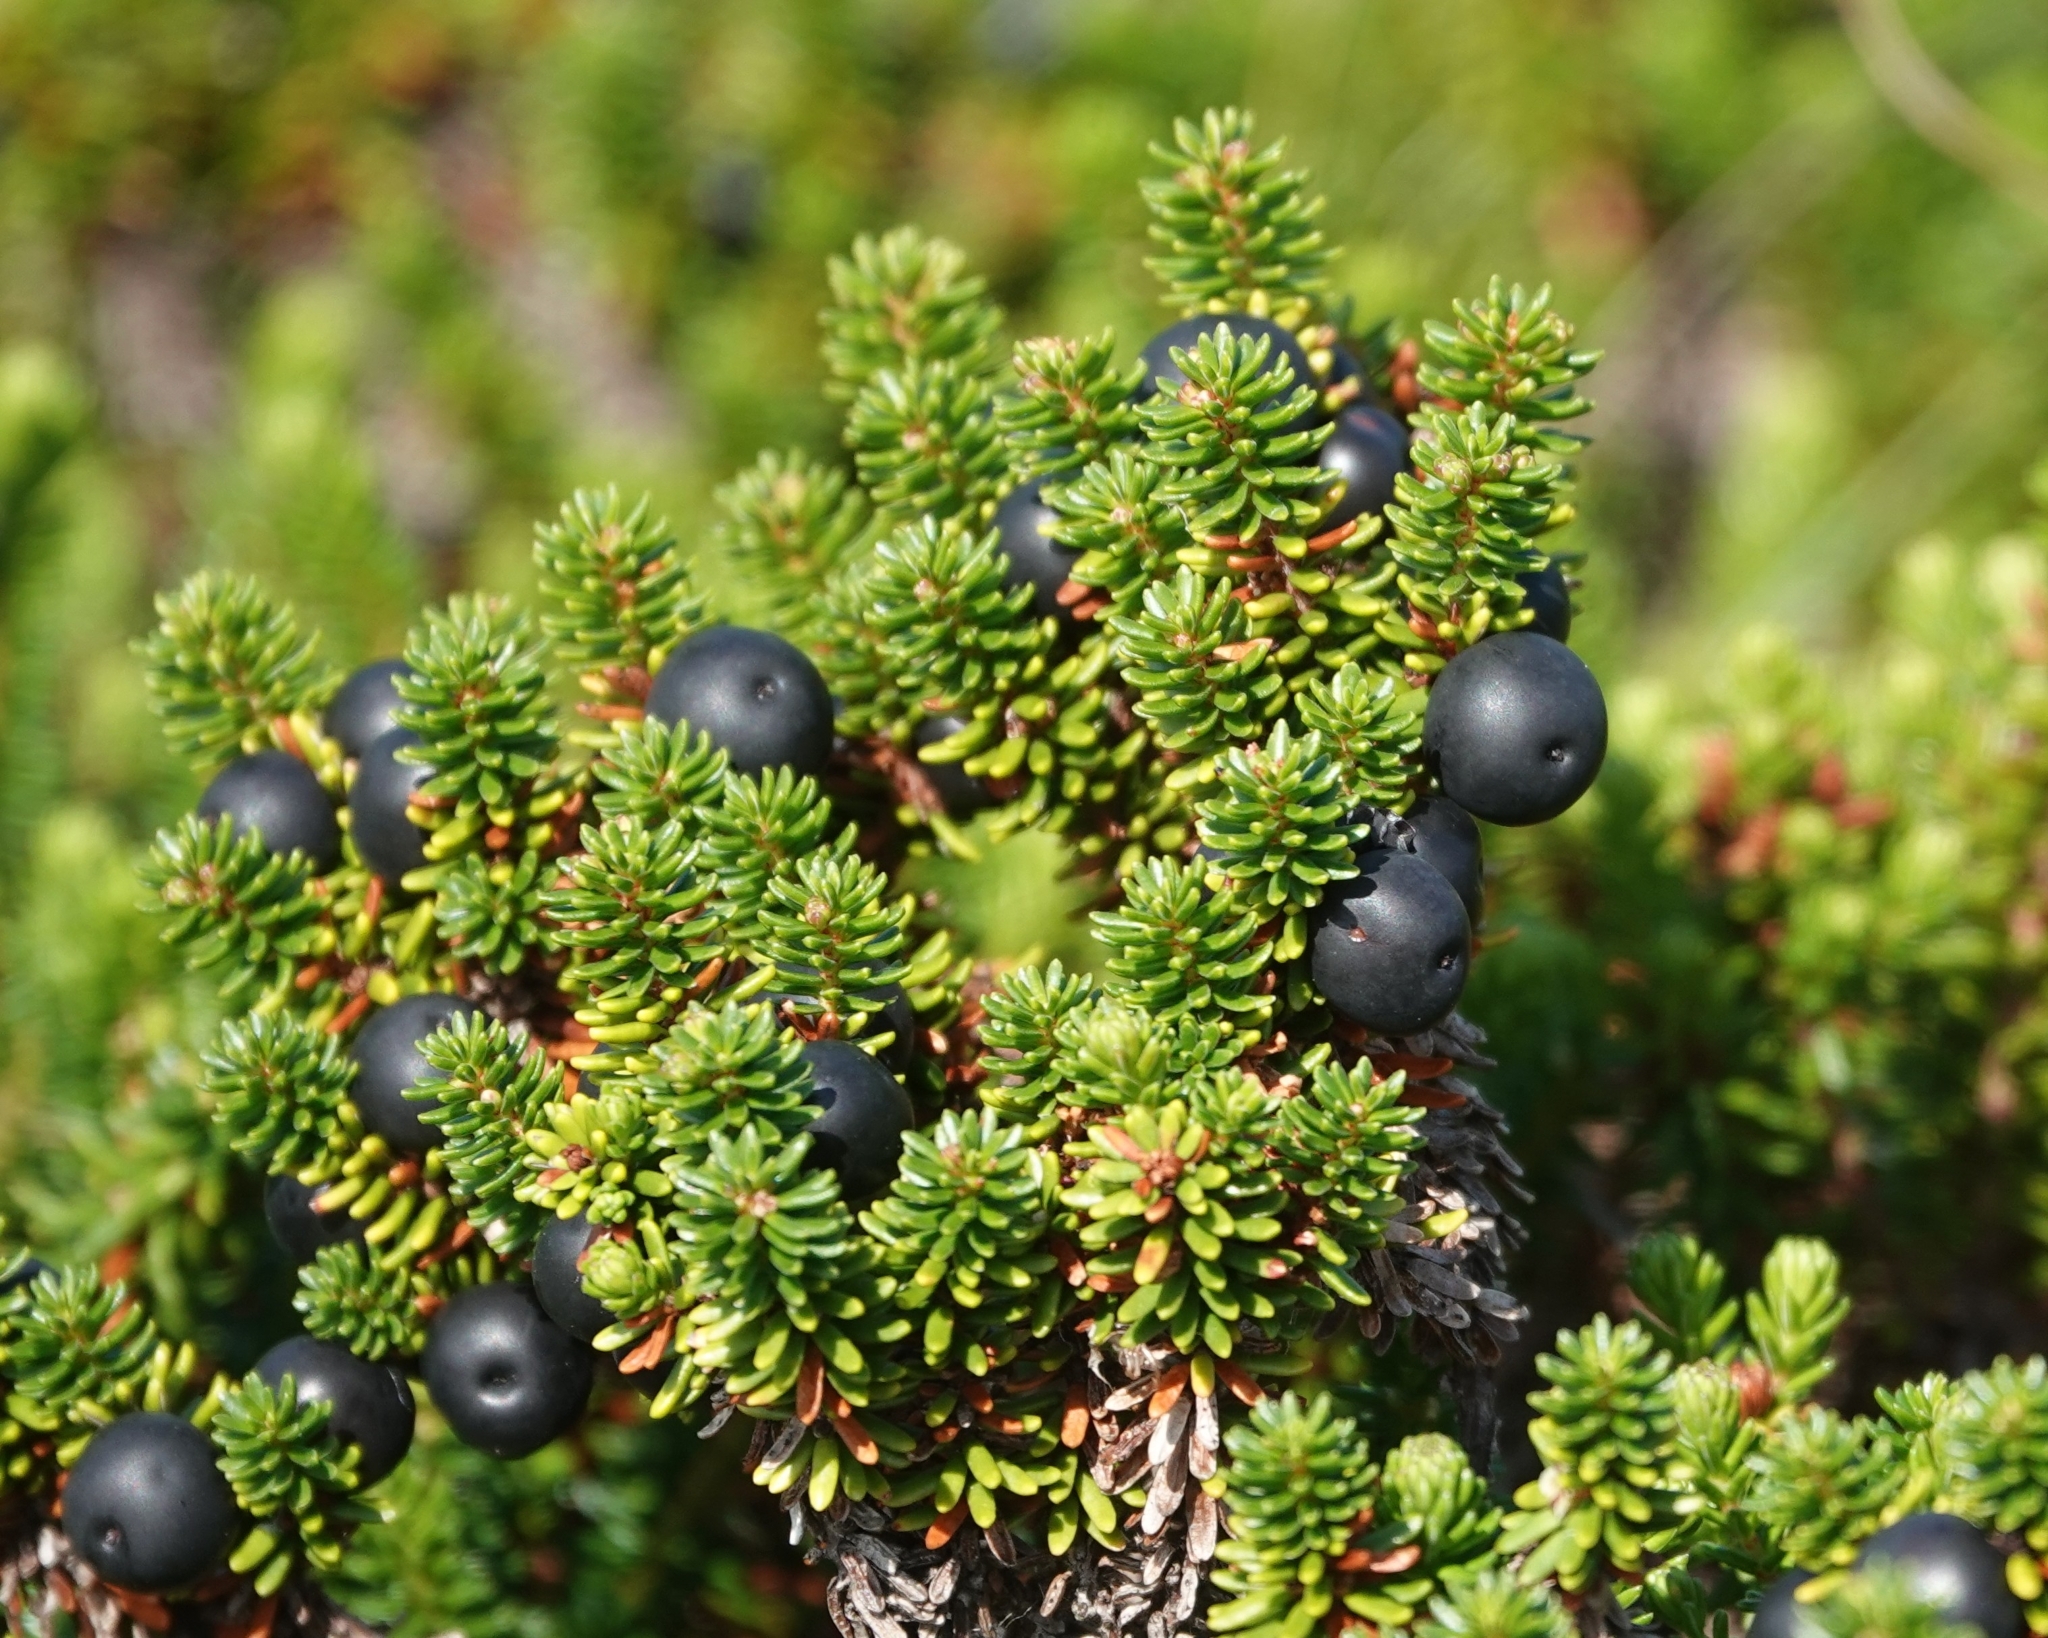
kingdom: Plantae
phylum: Tracheophyta
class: Magnoliopsida
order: Ericales
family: Ericaceae
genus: Empetrum
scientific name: Empetrum nigrum
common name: Black crowberry
